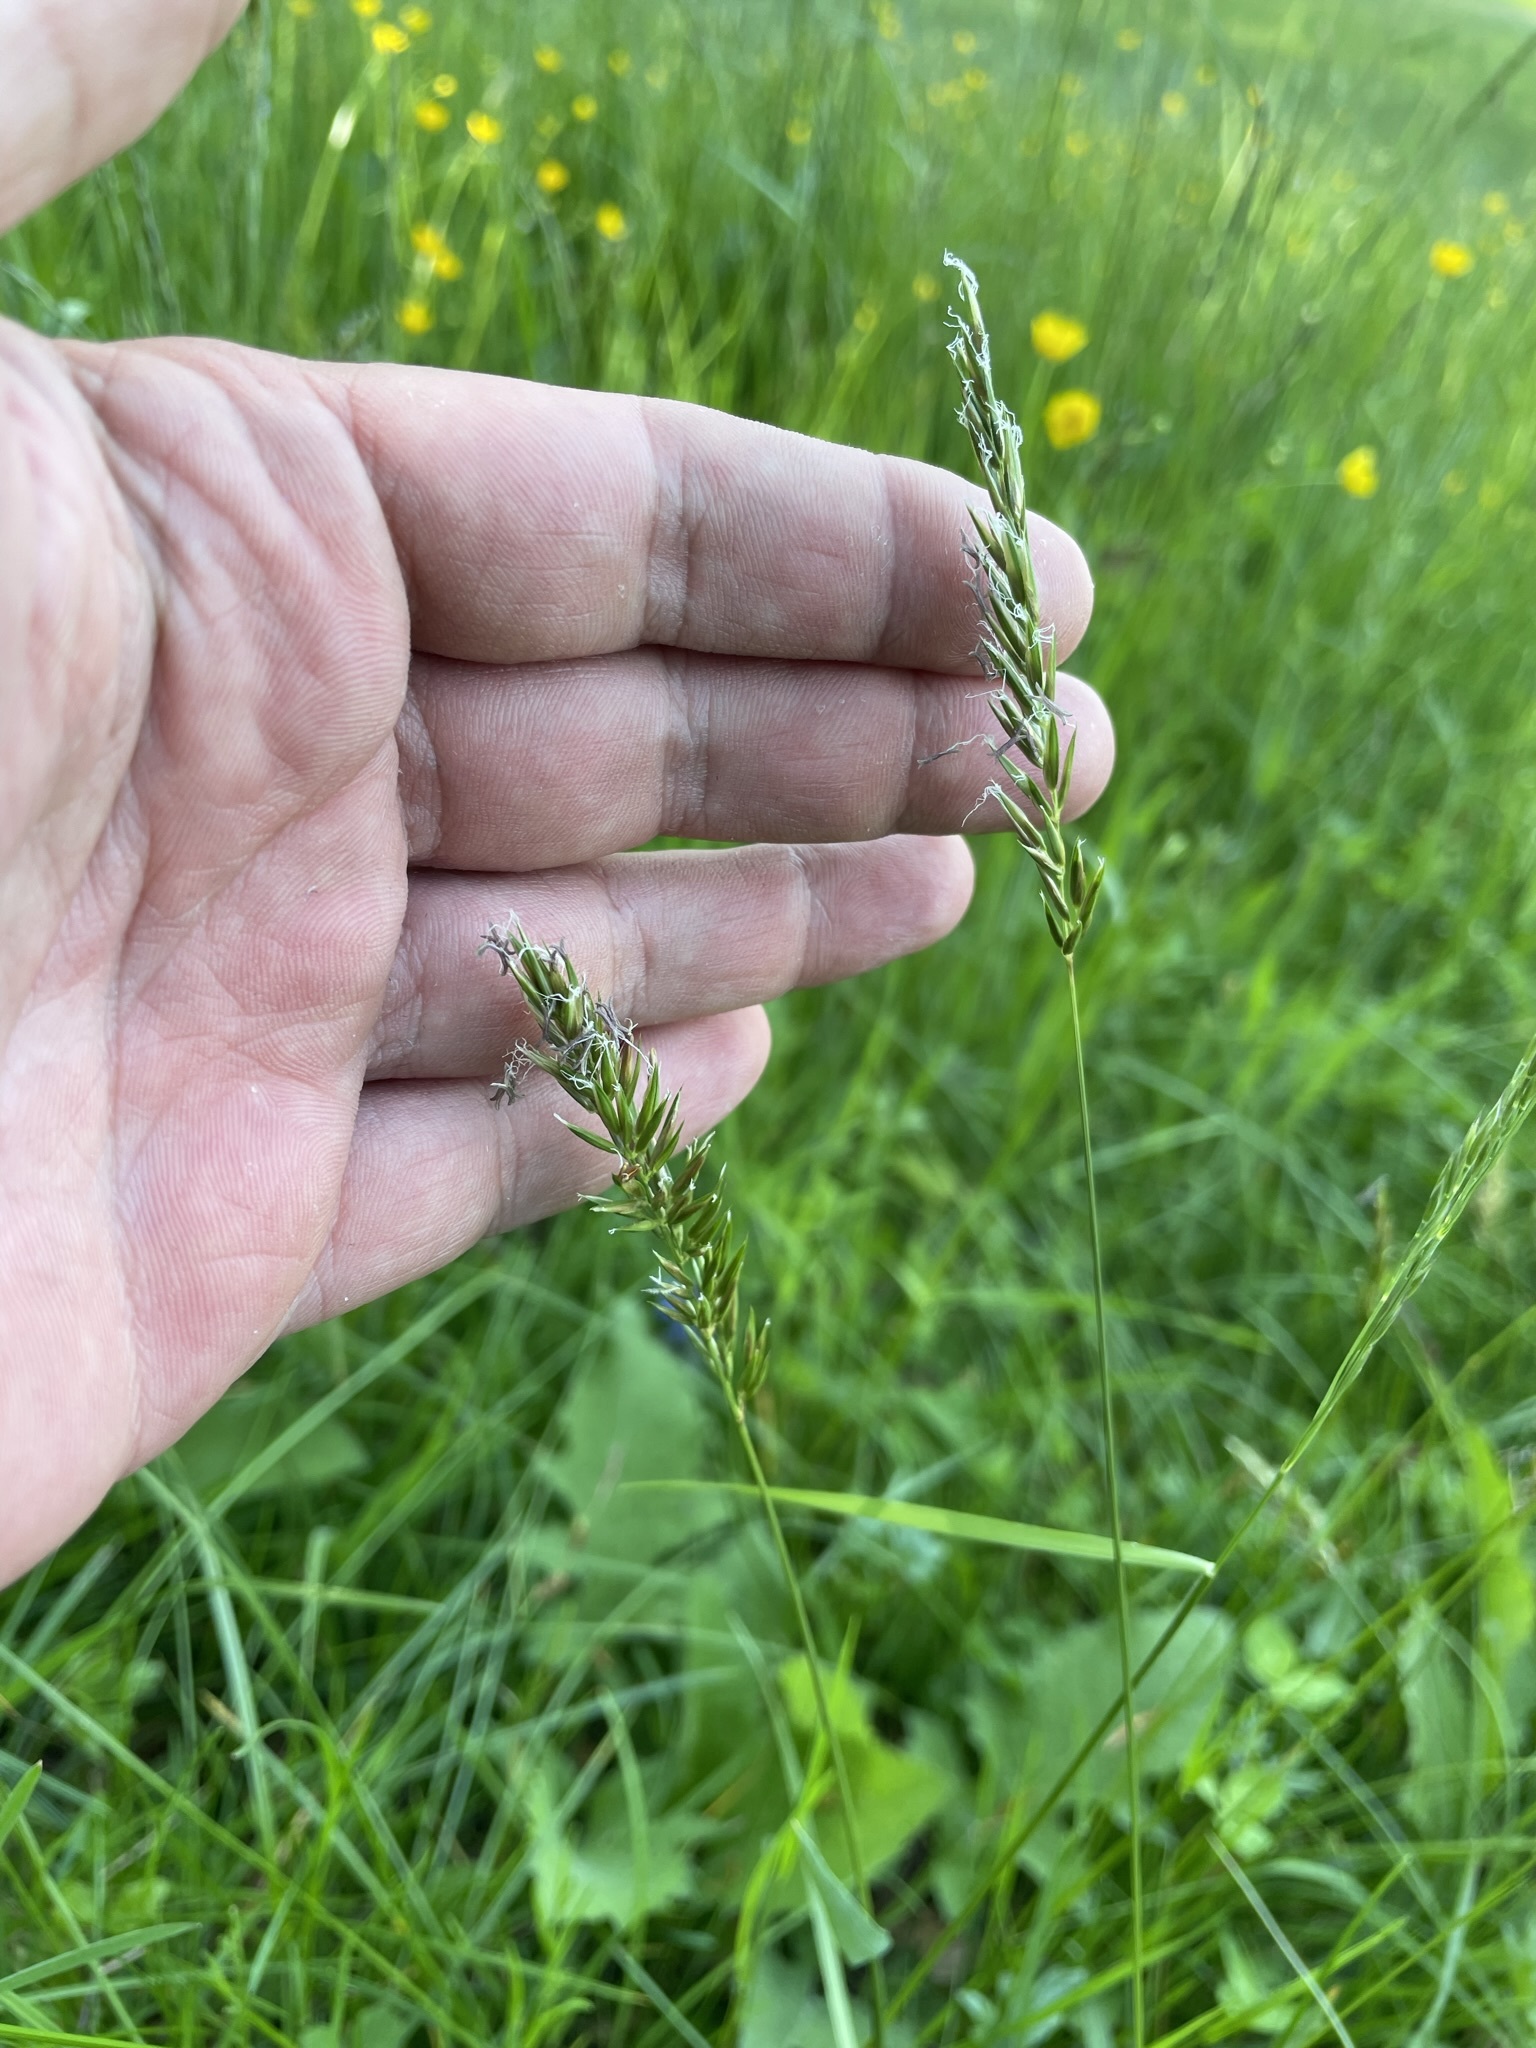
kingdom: Plantae
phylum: Tracheophyta
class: Liliopsida
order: Poales
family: Poaceae
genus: Anthoxanthum
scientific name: Anthoxanthum odoratum
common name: Sweet vernalgrass
